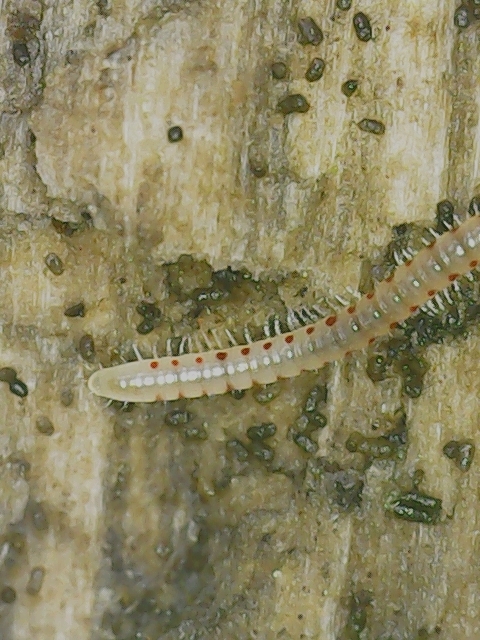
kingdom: Animalia
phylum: Arthropoda
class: Diplopoda
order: Julida
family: Blaniulidae
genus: Blaniulus
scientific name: Blaniulus guttulatus
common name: Spotted snake millipede
